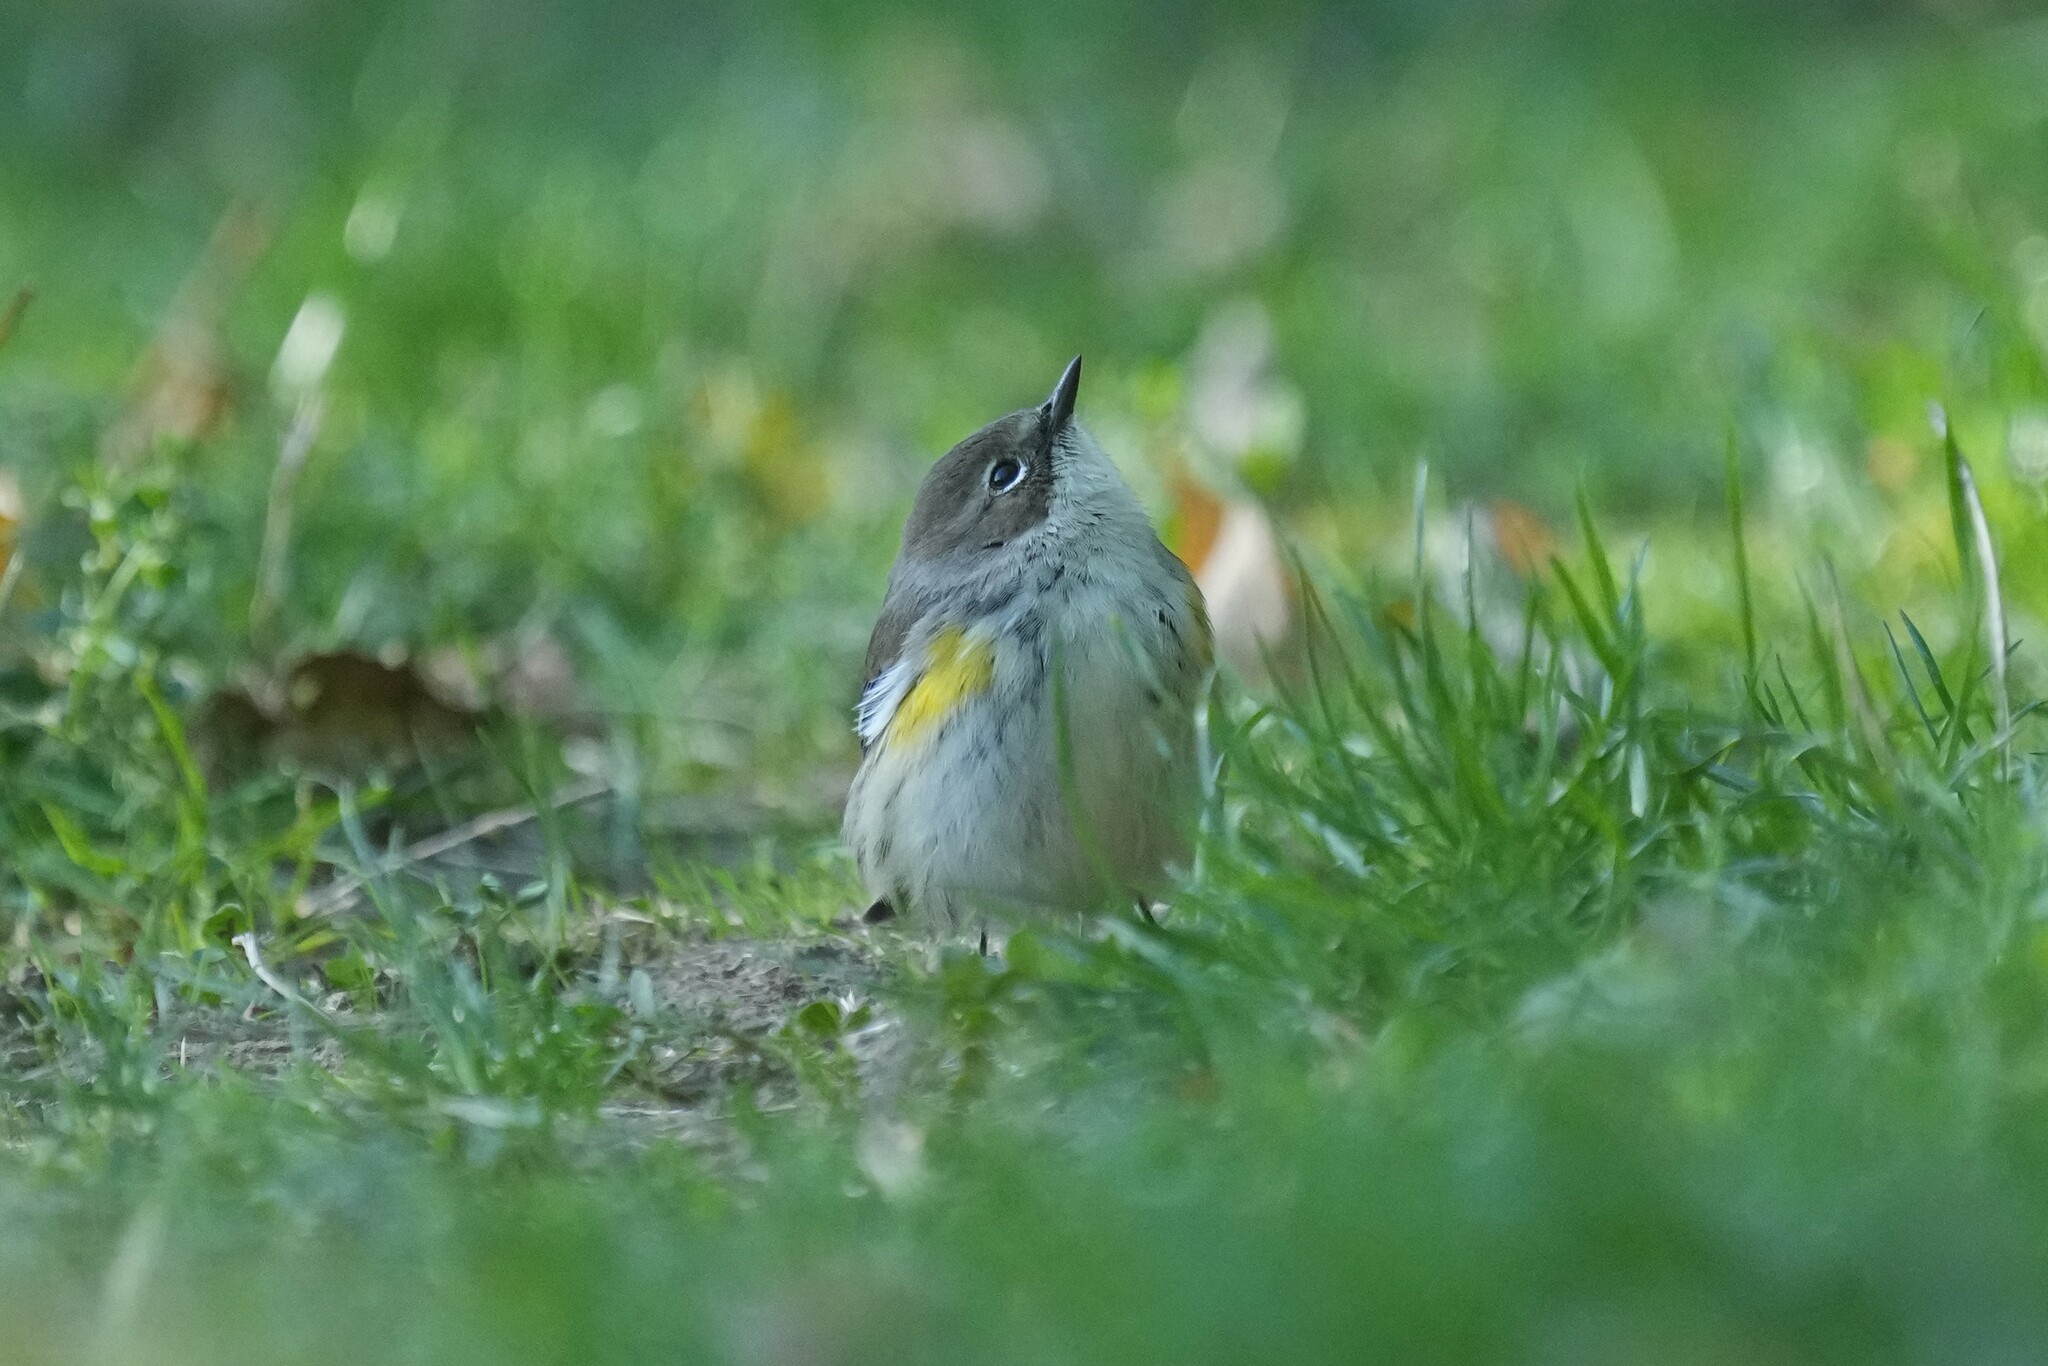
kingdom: Animalia
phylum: Chordata
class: Aves
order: Passeriformes
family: Parulidae
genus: Setophaga
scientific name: Setophaga coronata
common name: Myrtle warbler
